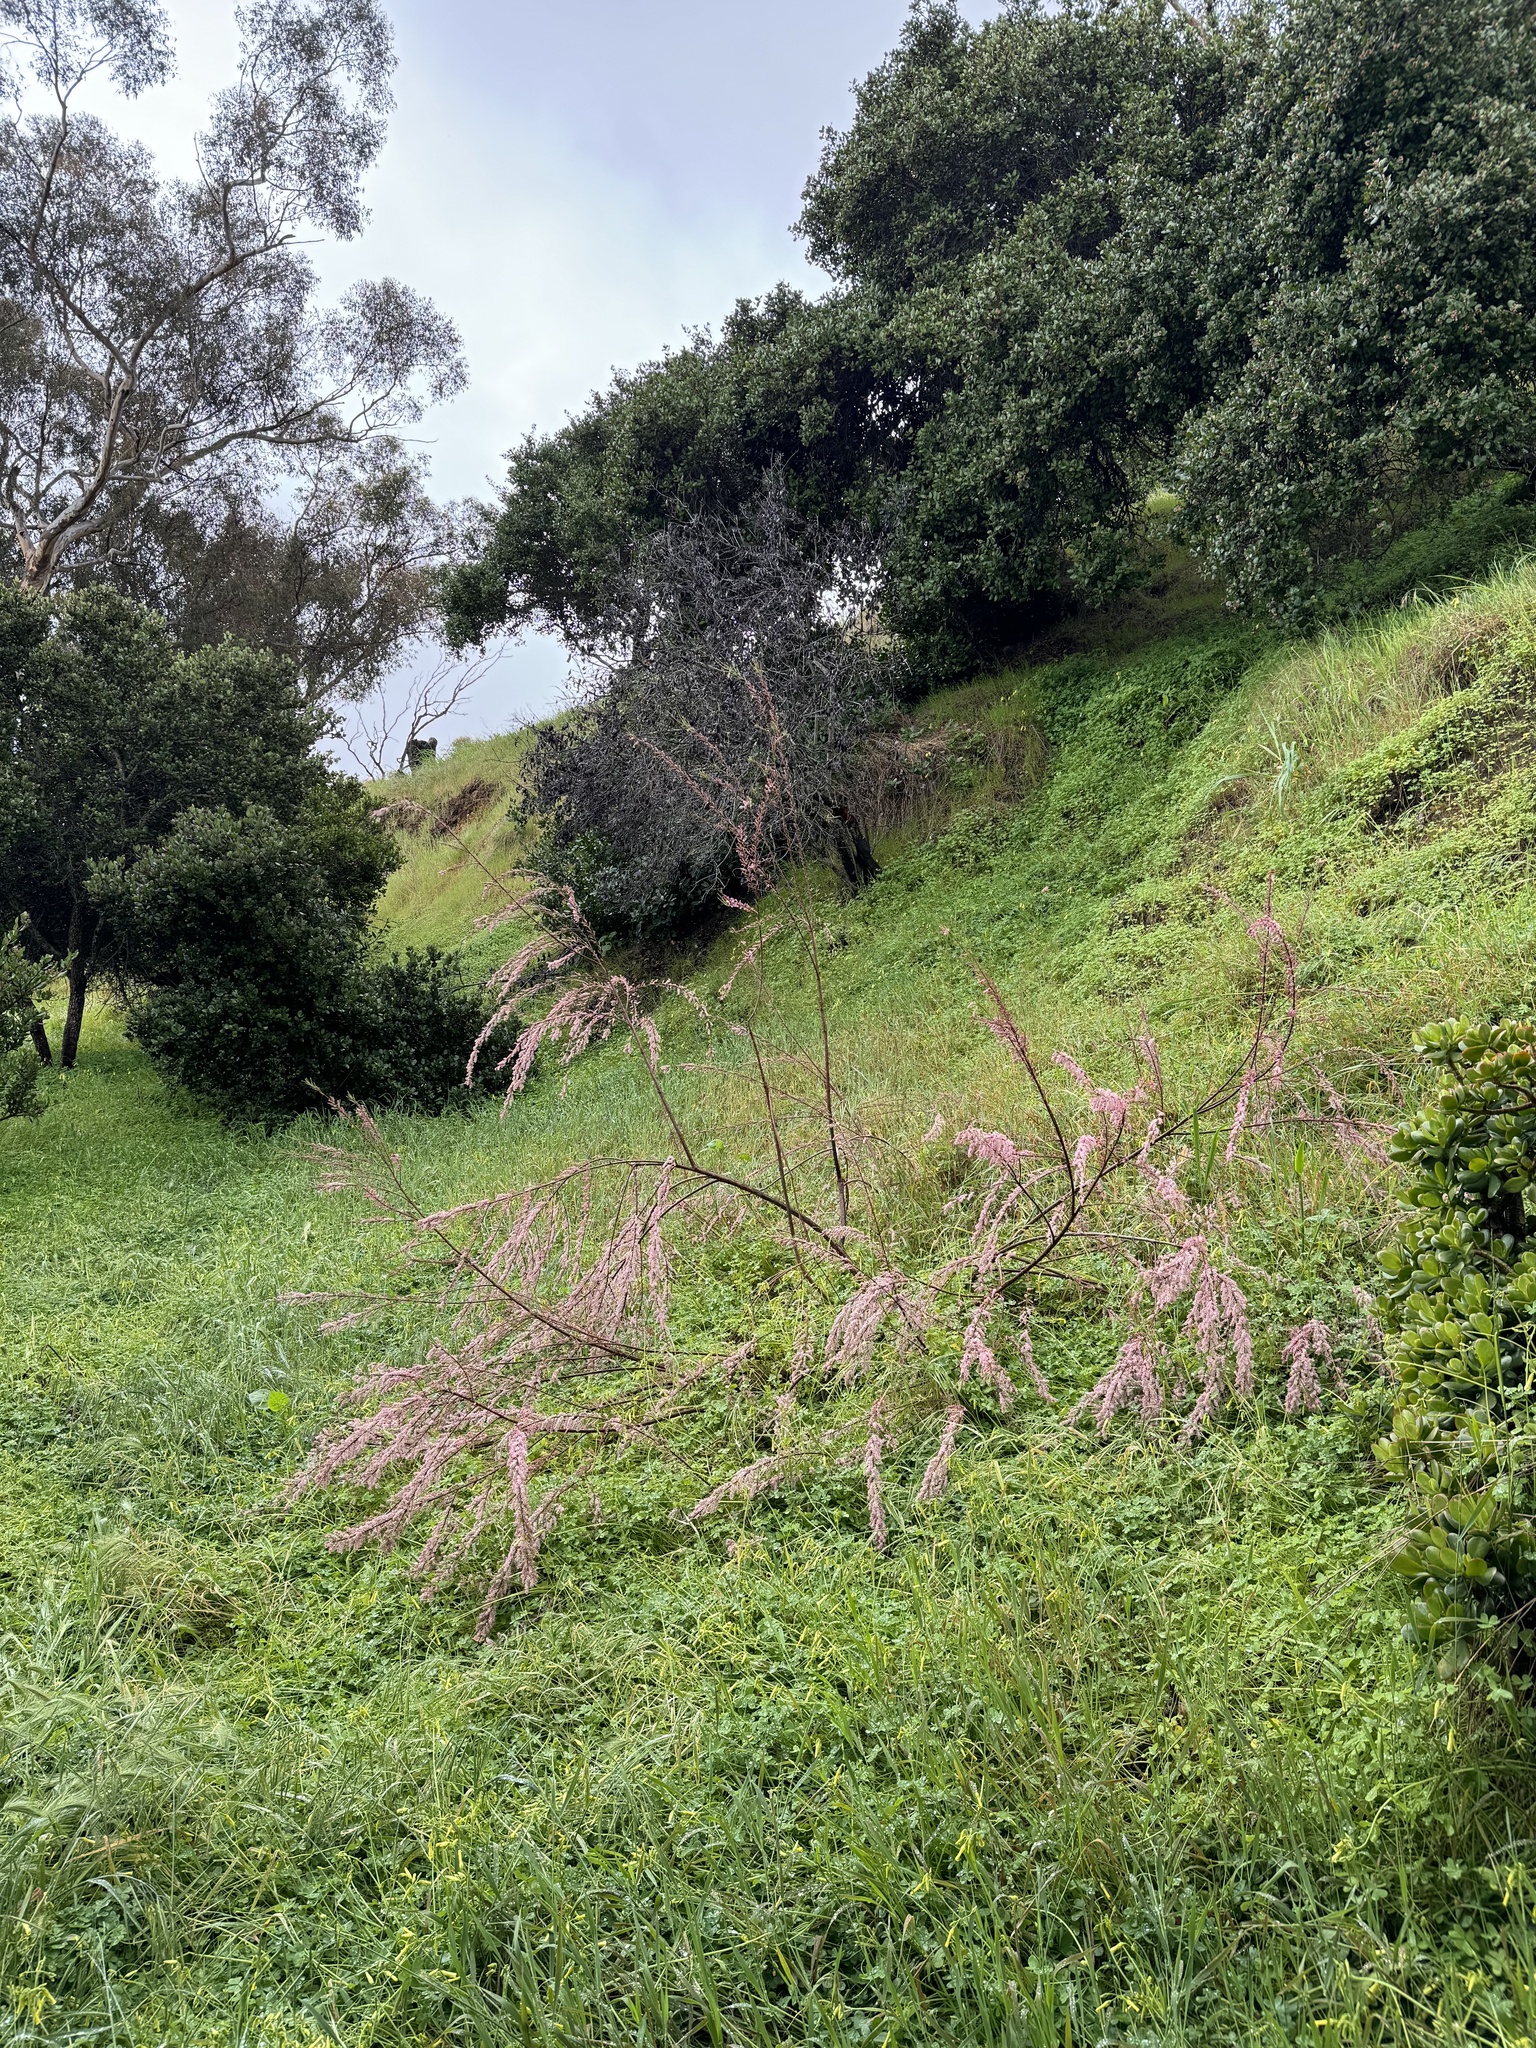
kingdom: Plantae
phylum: Tracheophyta
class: Magnoliopsida
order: Caryophyllales
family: Tamaricaceae
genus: Tamarix
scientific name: Tamarix parviflora
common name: Smallflower tamarisk
